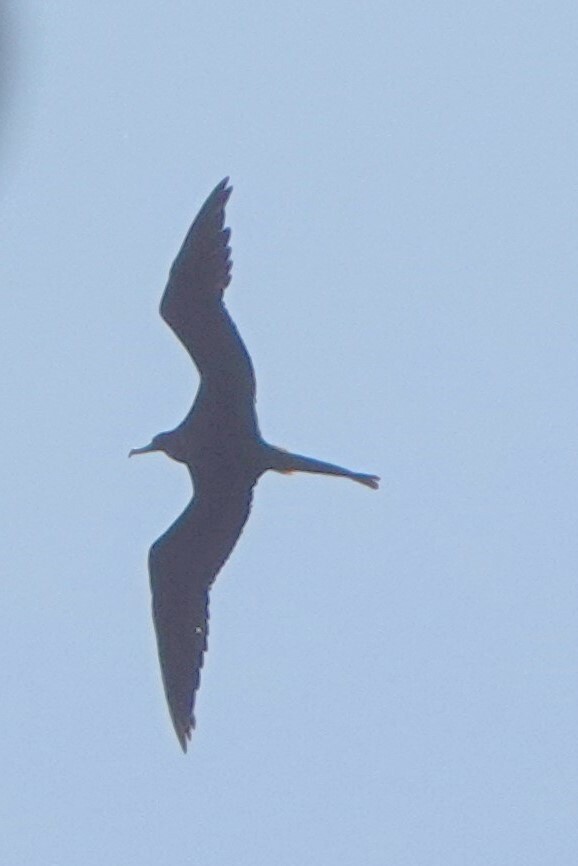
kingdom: Animalia
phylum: Chordata
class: Aves
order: Suliformes
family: Fregatidae
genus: Fregata
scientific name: Fregata magnificens
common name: Magnificent frigatebird
